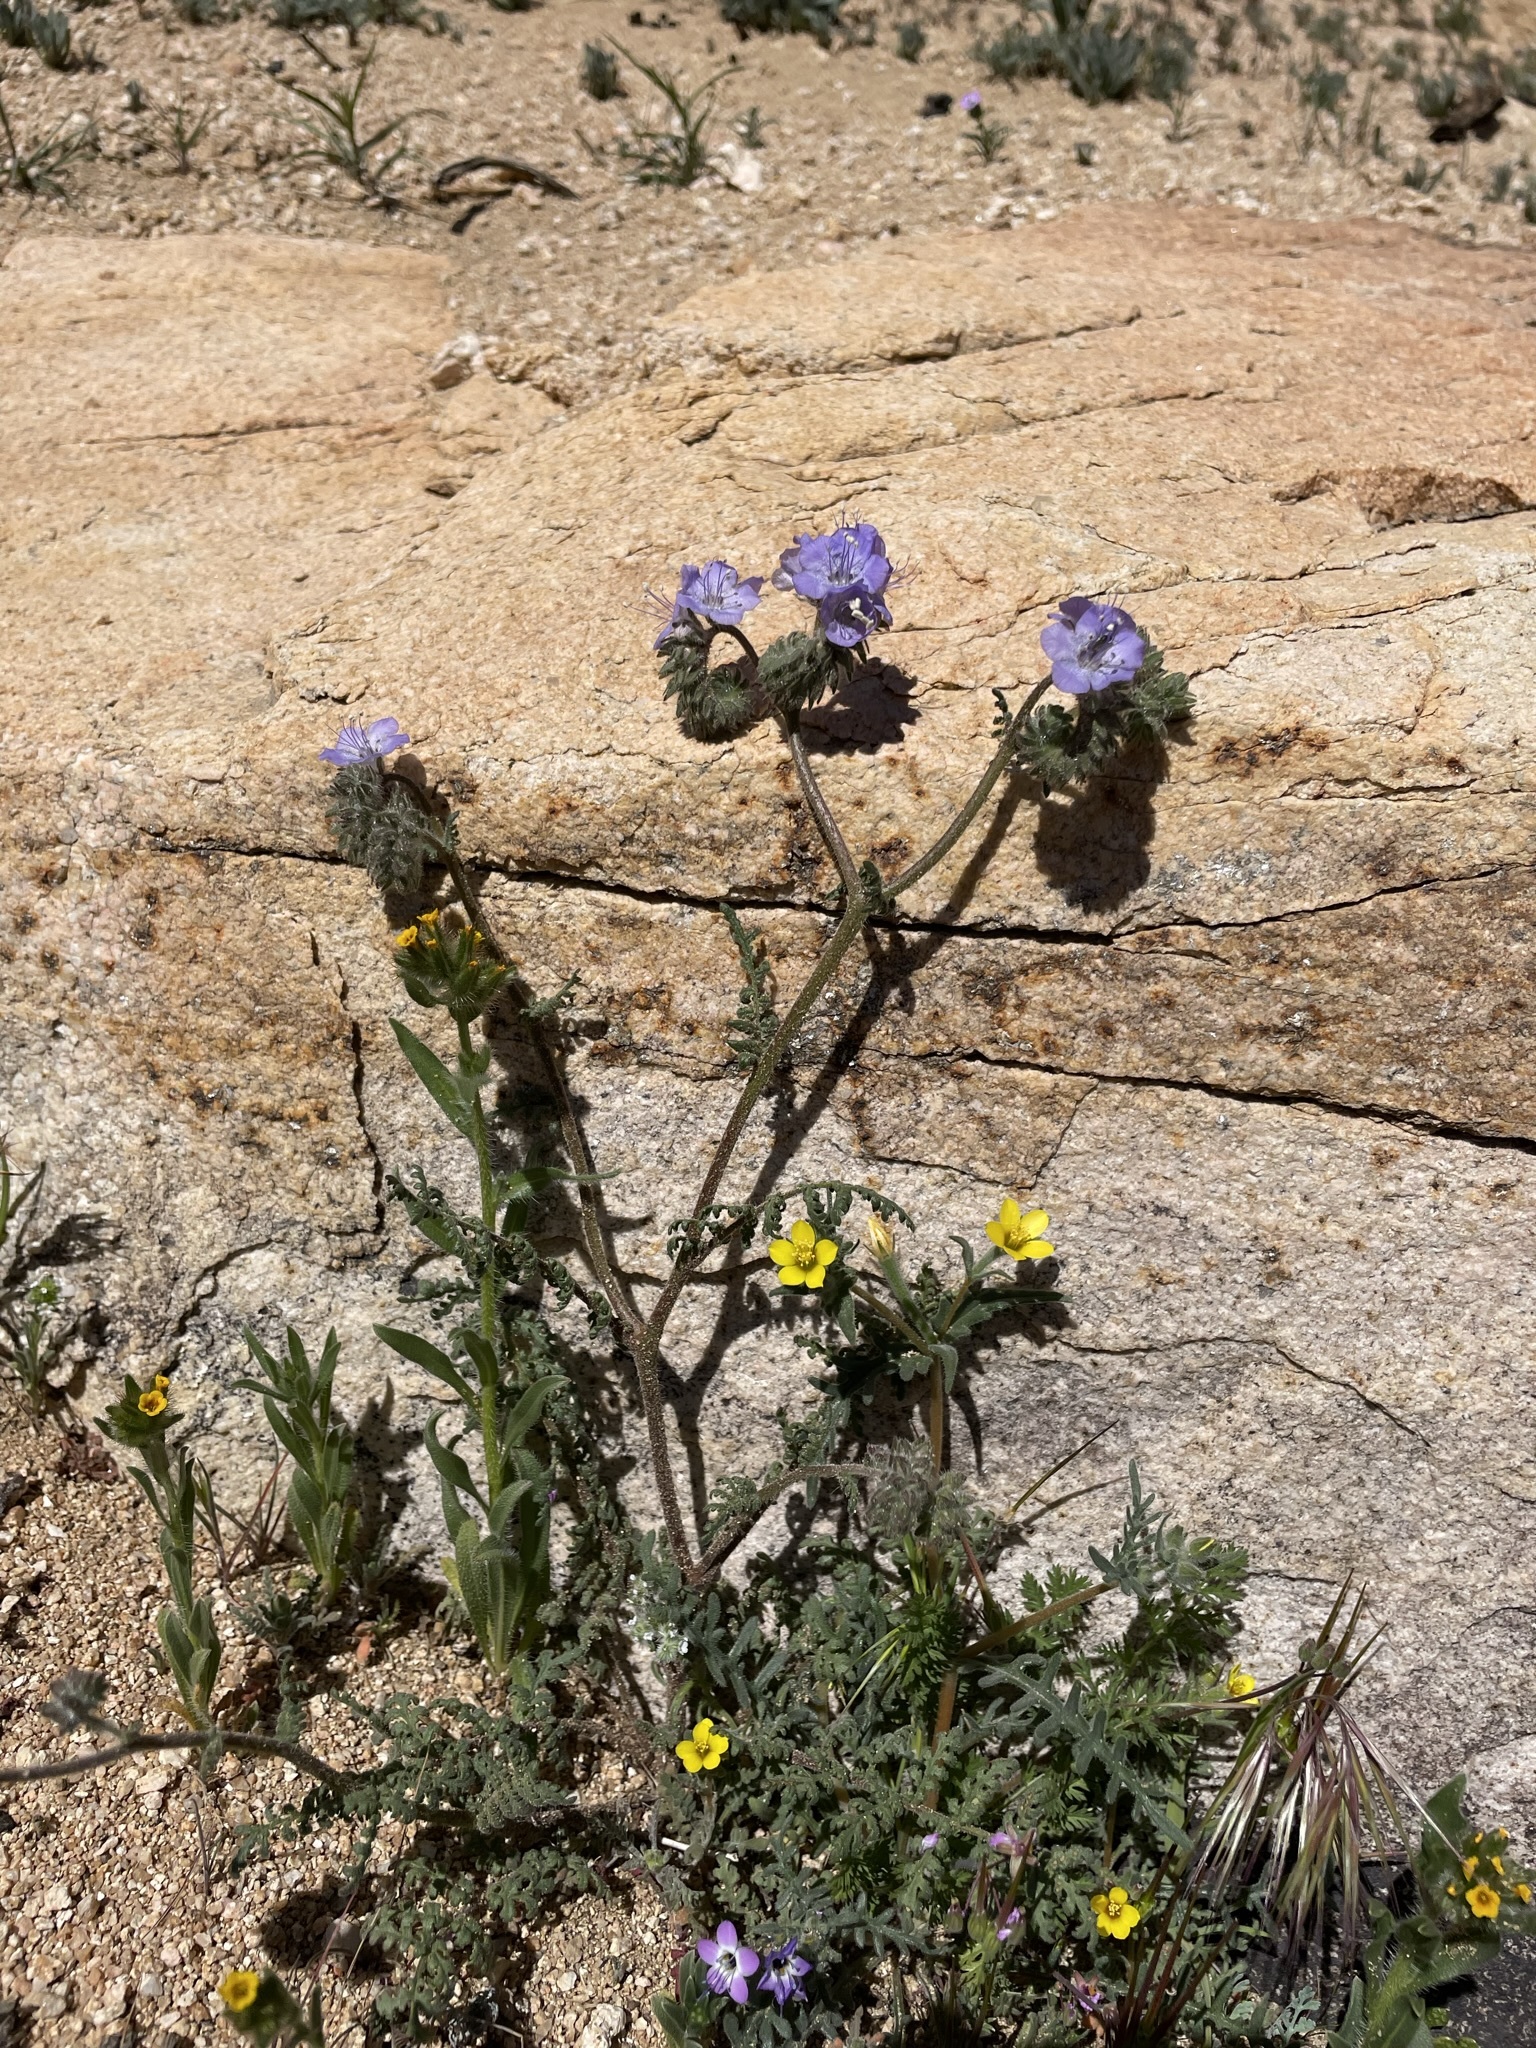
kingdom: Plantae
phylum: Tracheophyta
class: Magnoliopsida
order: Boraginales
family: Hydrophyllaceae
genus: Phacelia
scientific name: Phacelia distans
